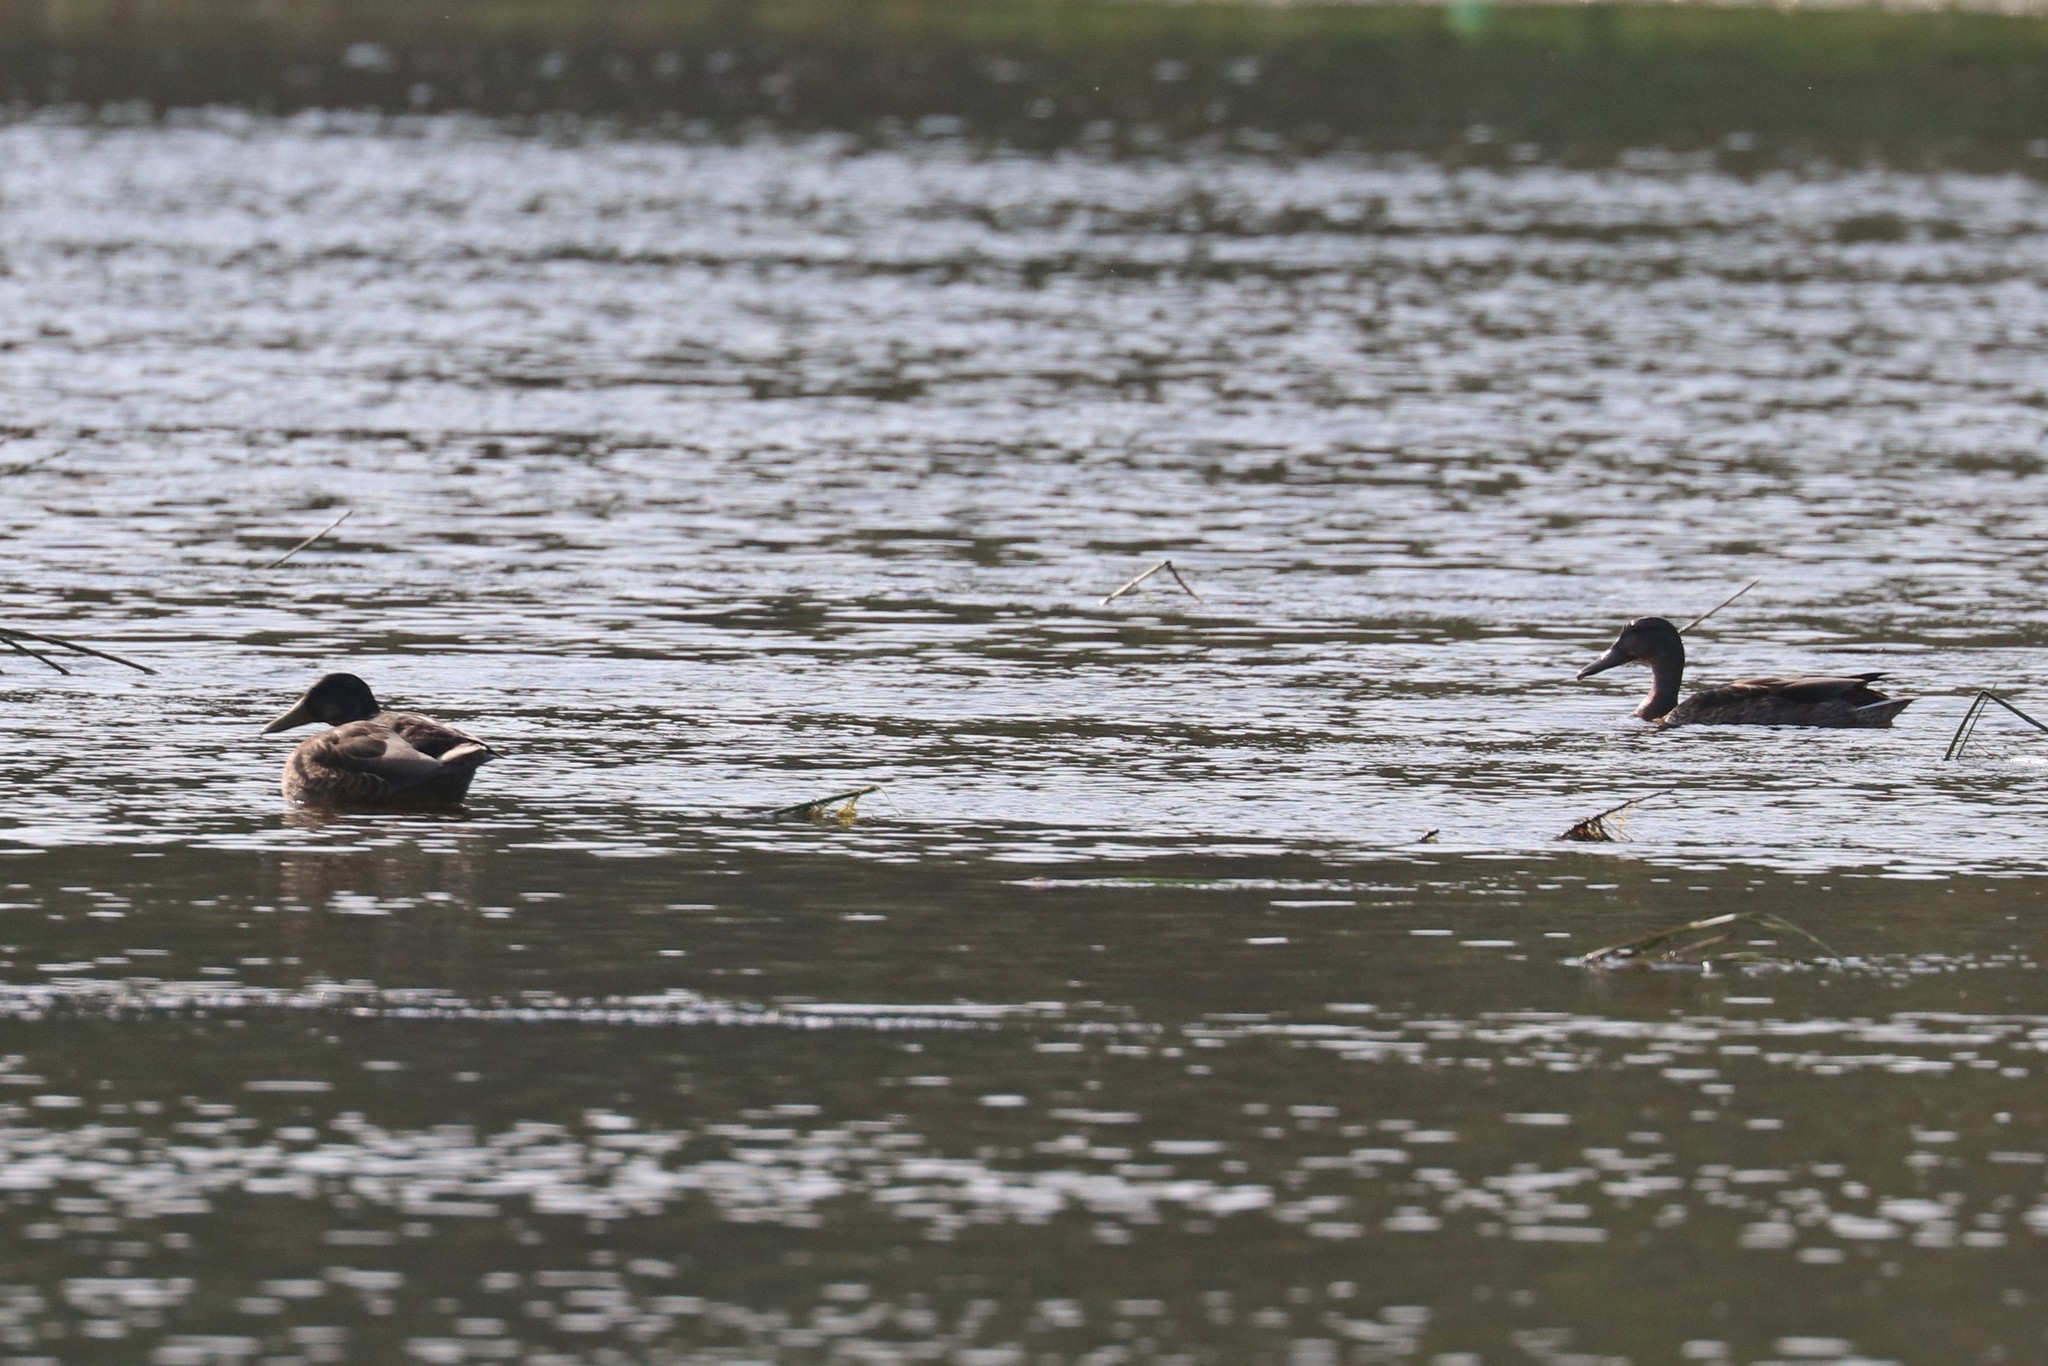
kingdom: Animalia
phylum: Chordata
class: Aves
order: Anseriformes
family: Anatidae
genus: Anas
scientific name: Anas platyrhynchos
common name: Mallard
